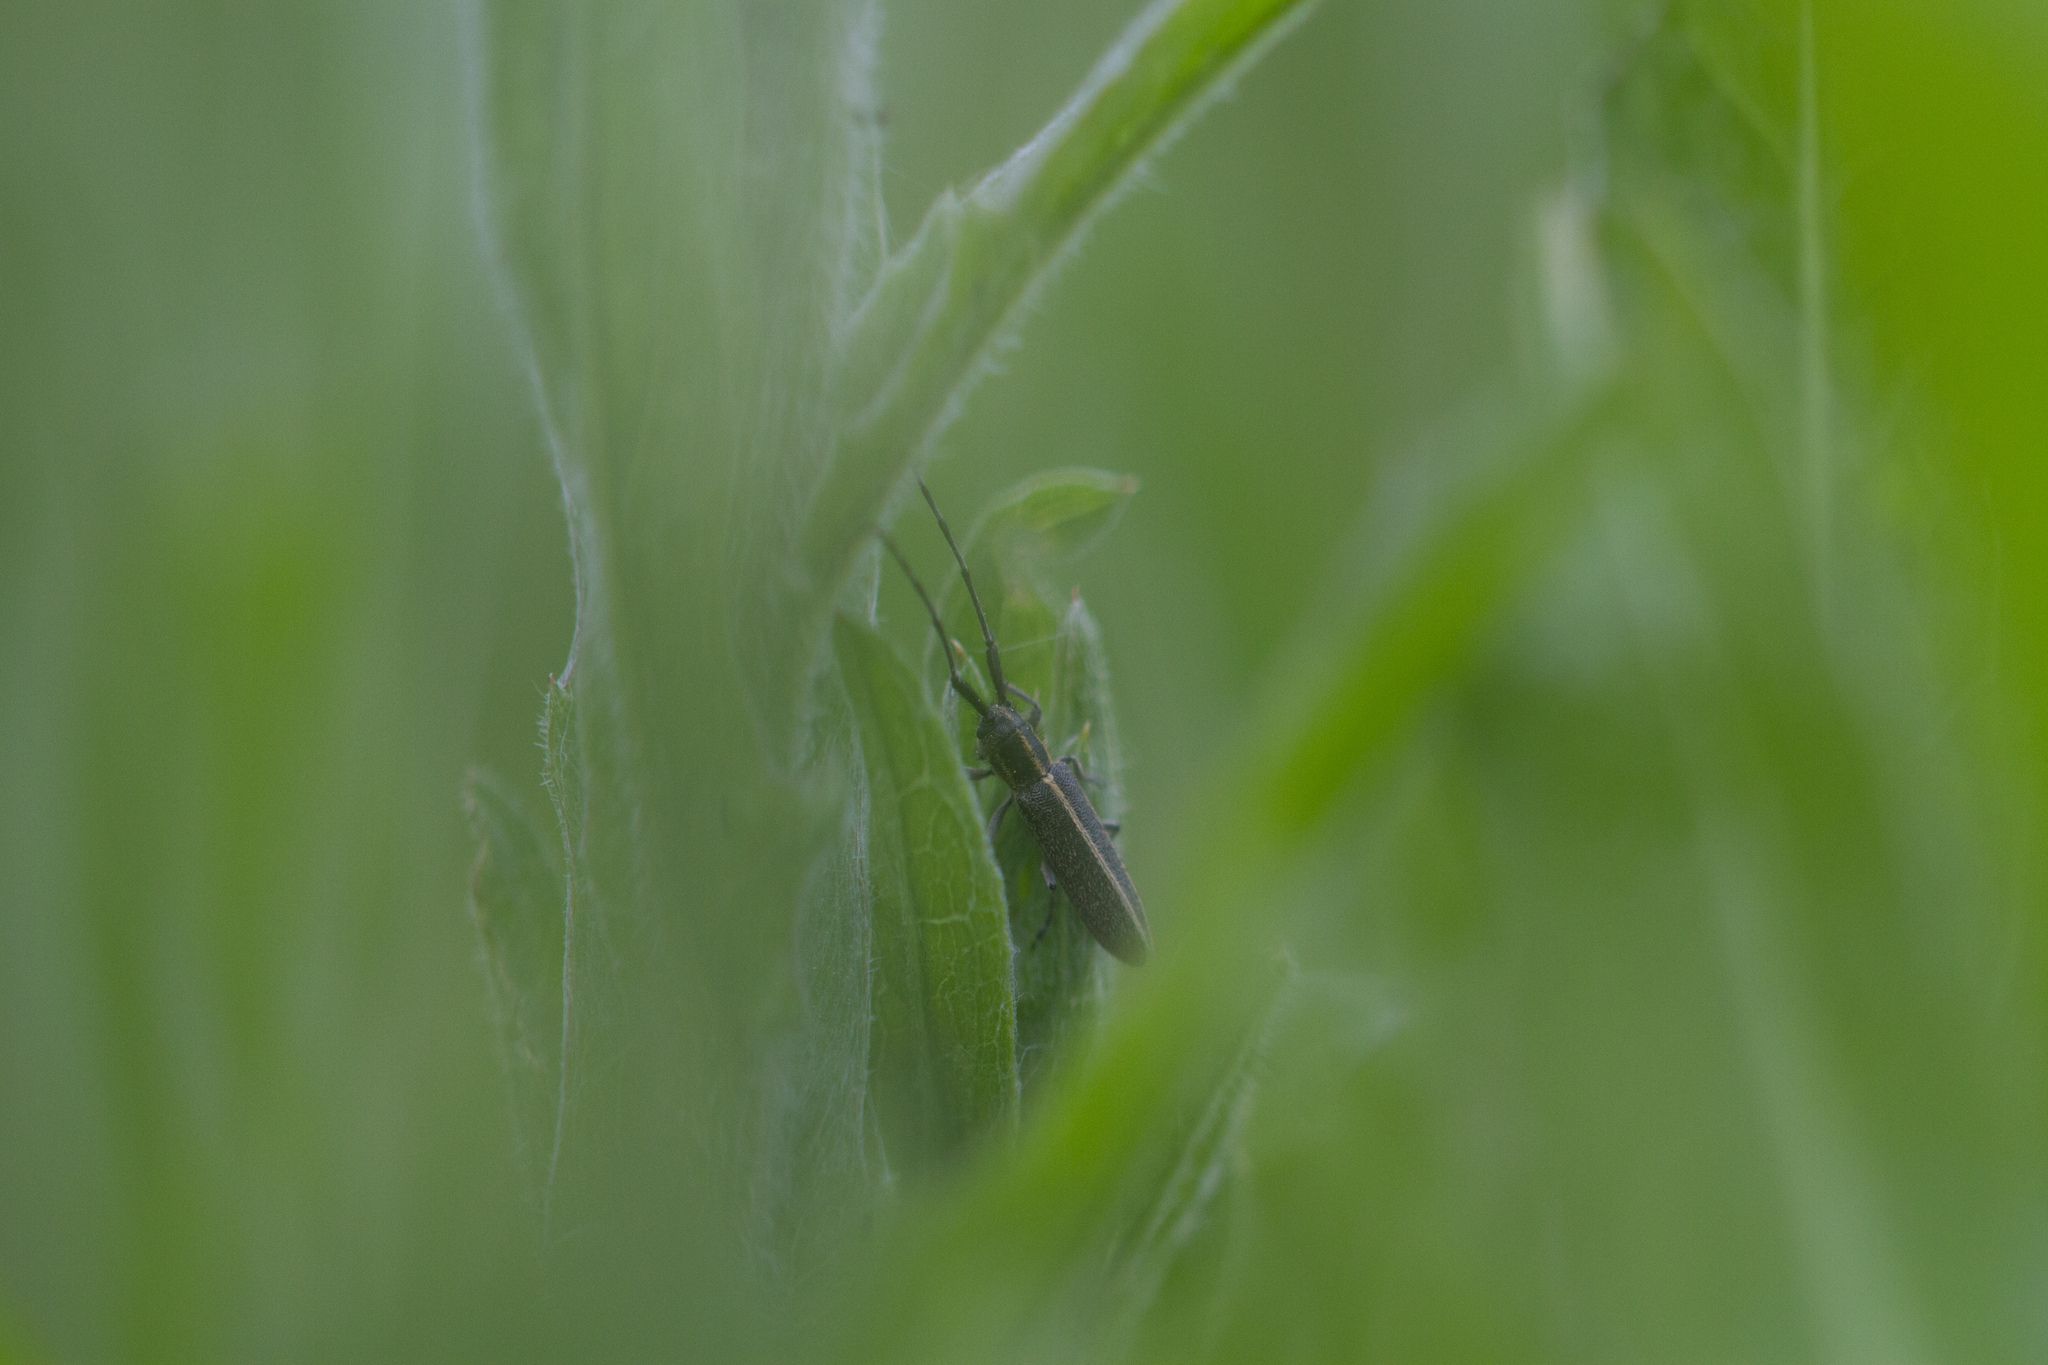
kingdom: Animalia
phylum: Arthropoda
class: Insecta
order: Coleoptera
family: Cerambycidae
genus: Agapanthia
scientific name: Agapanthia cardui
